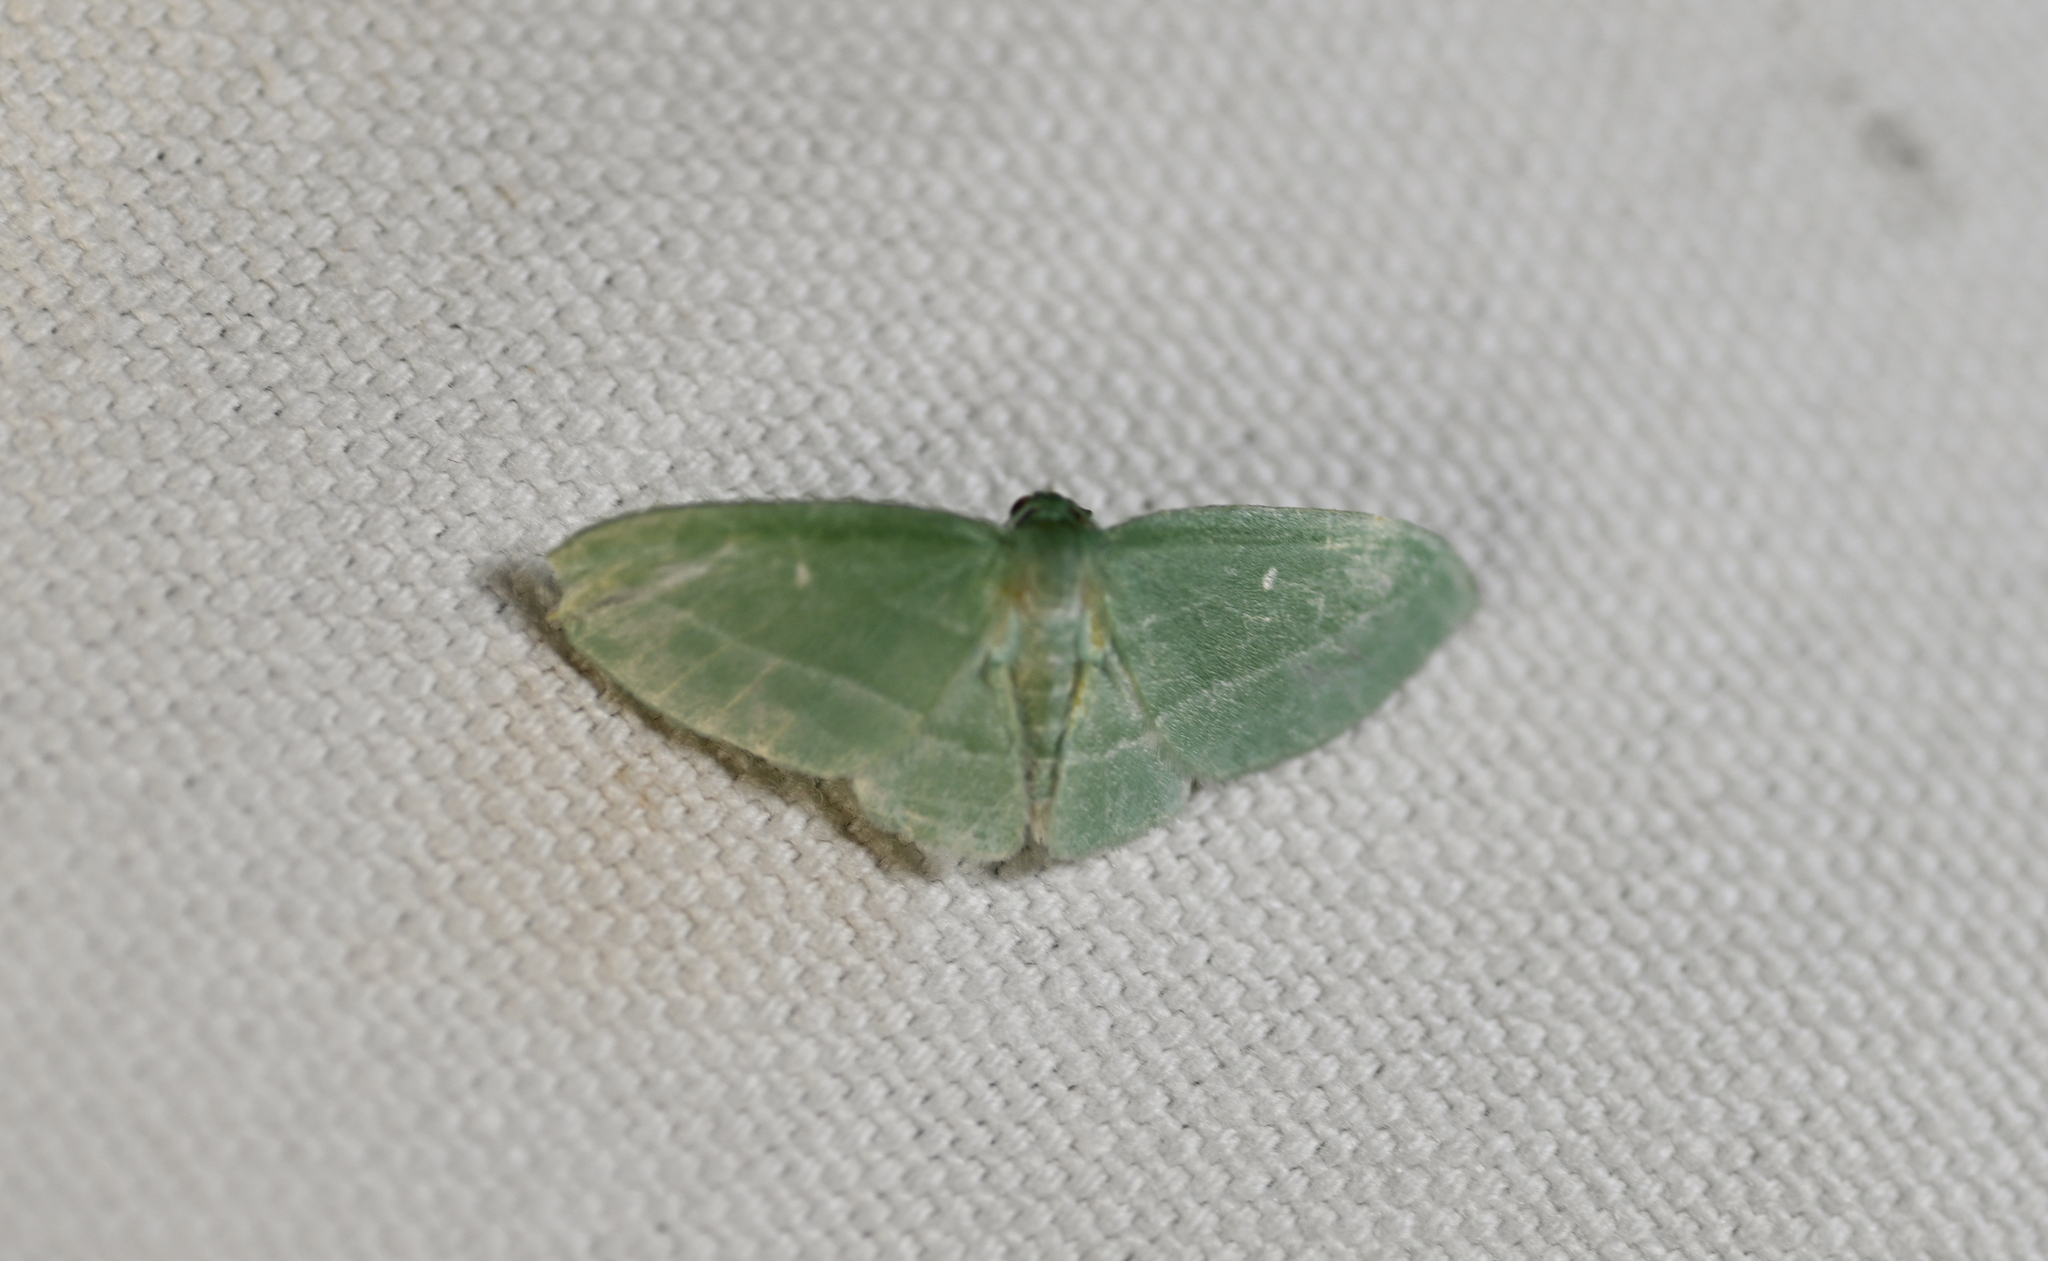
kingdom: Animalia
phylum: Arthropoda
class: Insecta
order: Lepidoptera
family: Geometridae
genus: Dyspteris
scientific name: Dyspteris abortivaria
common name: Bad-wing
